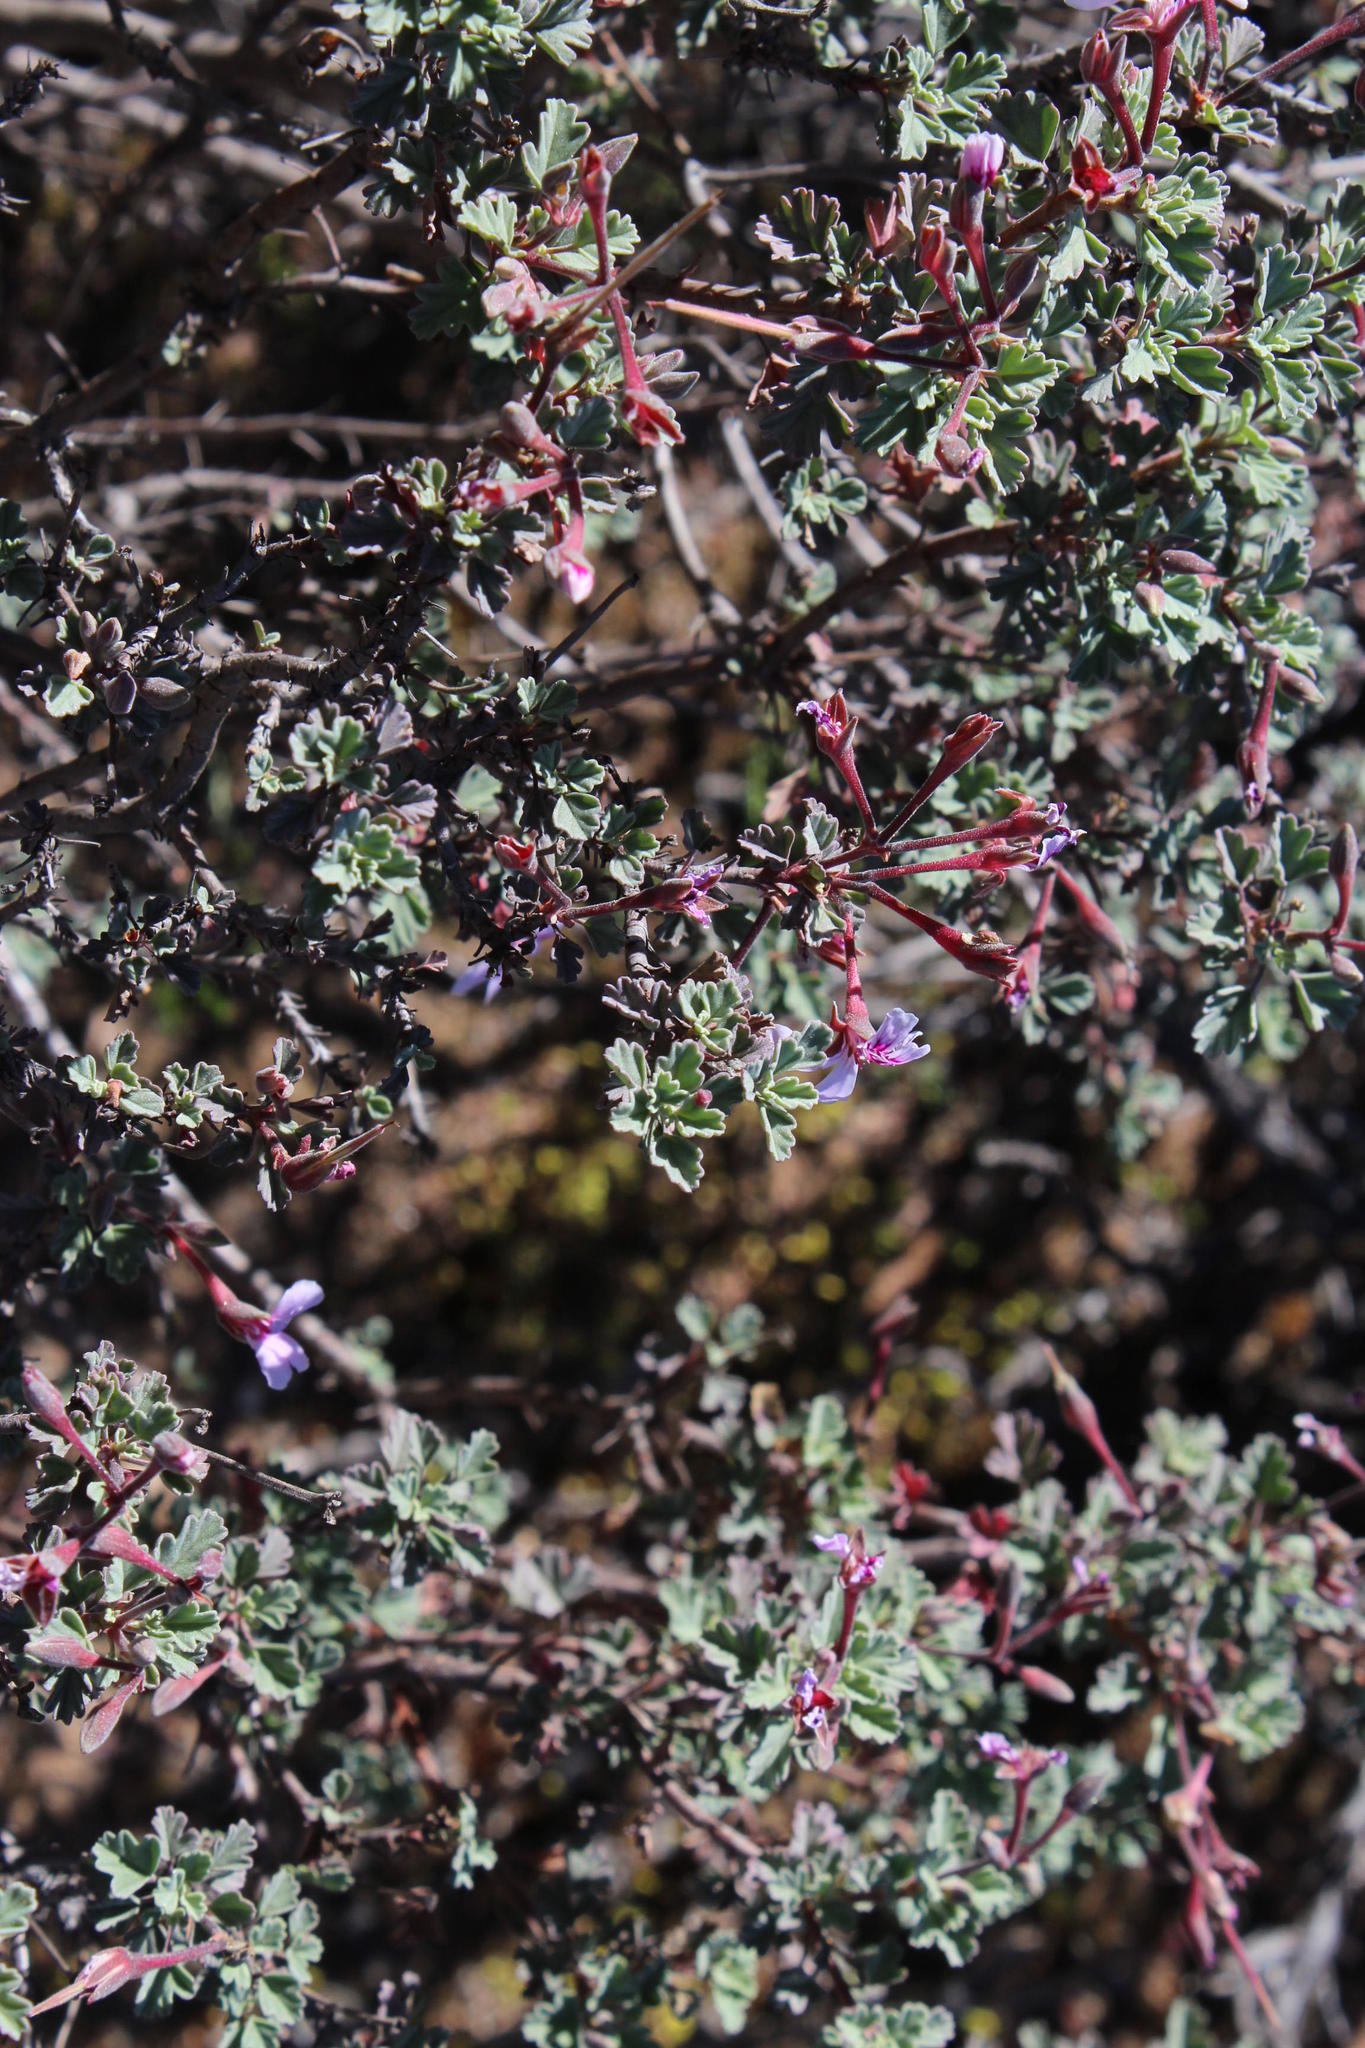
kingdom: Plantae
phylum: Tracheophyta
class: Magnoliopsida
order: Geraniales
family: Geraniaceae
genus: Pelargonium
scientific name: Pelargonium exstipulatum
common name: Soft-leaf trifid pelargonium
